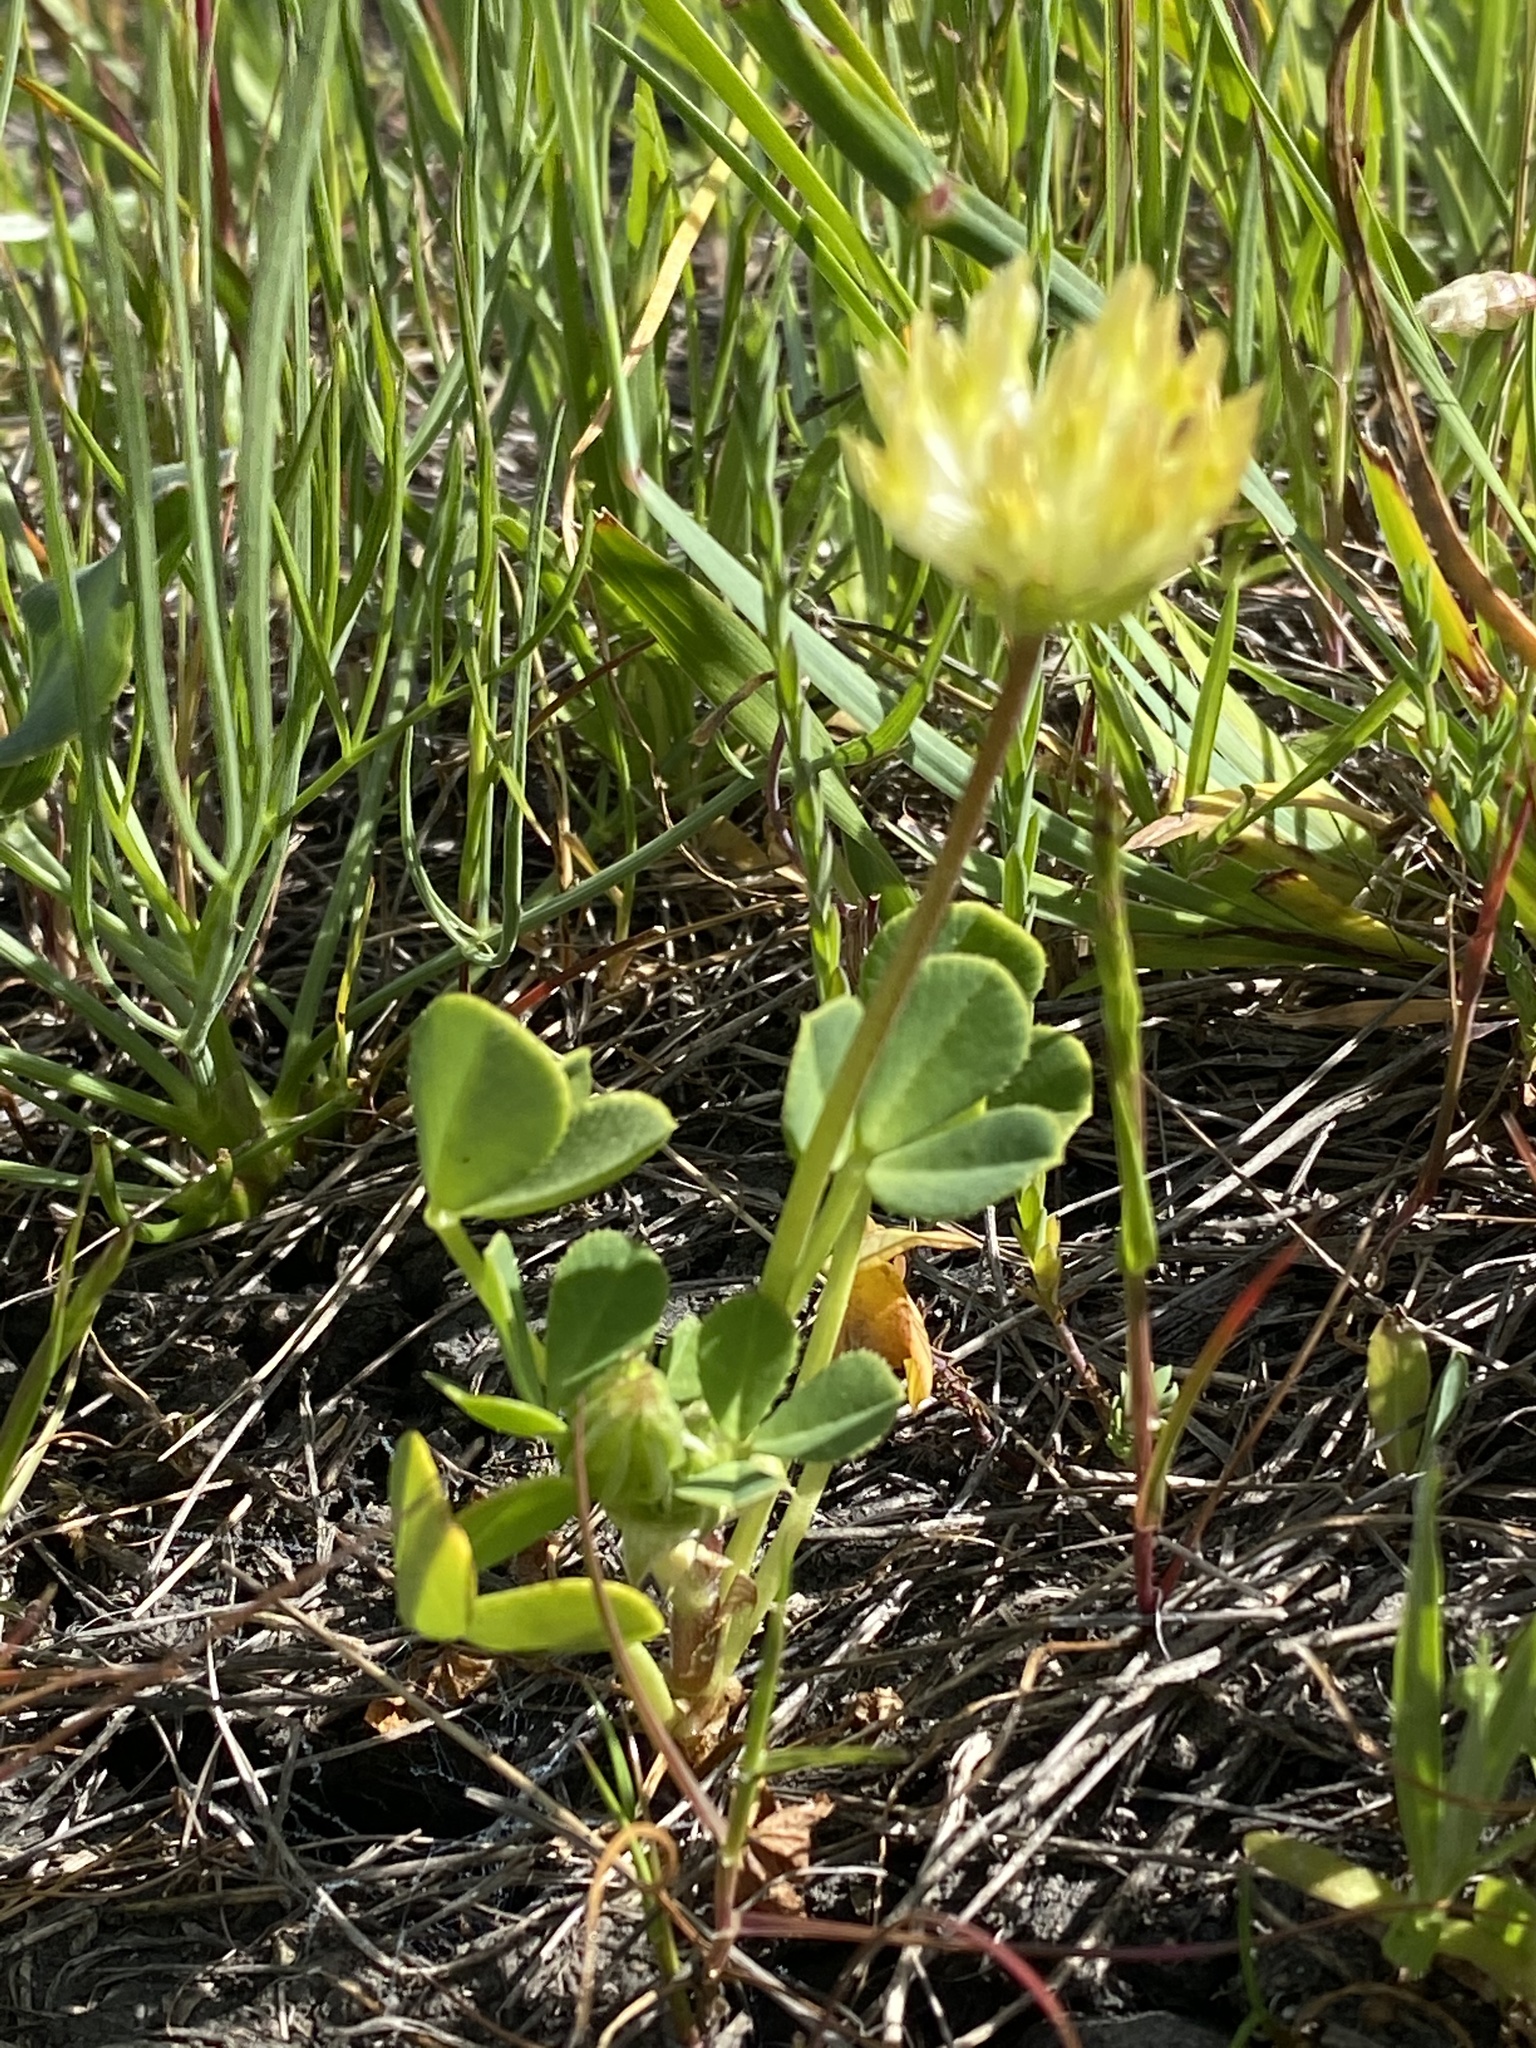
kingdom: Plantae
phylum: Tracheophyta
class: Magnoliopsida
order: Fabales
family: Fabaceae
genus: Trifolium
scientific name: Trifolium fucatum
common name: Puff clover
